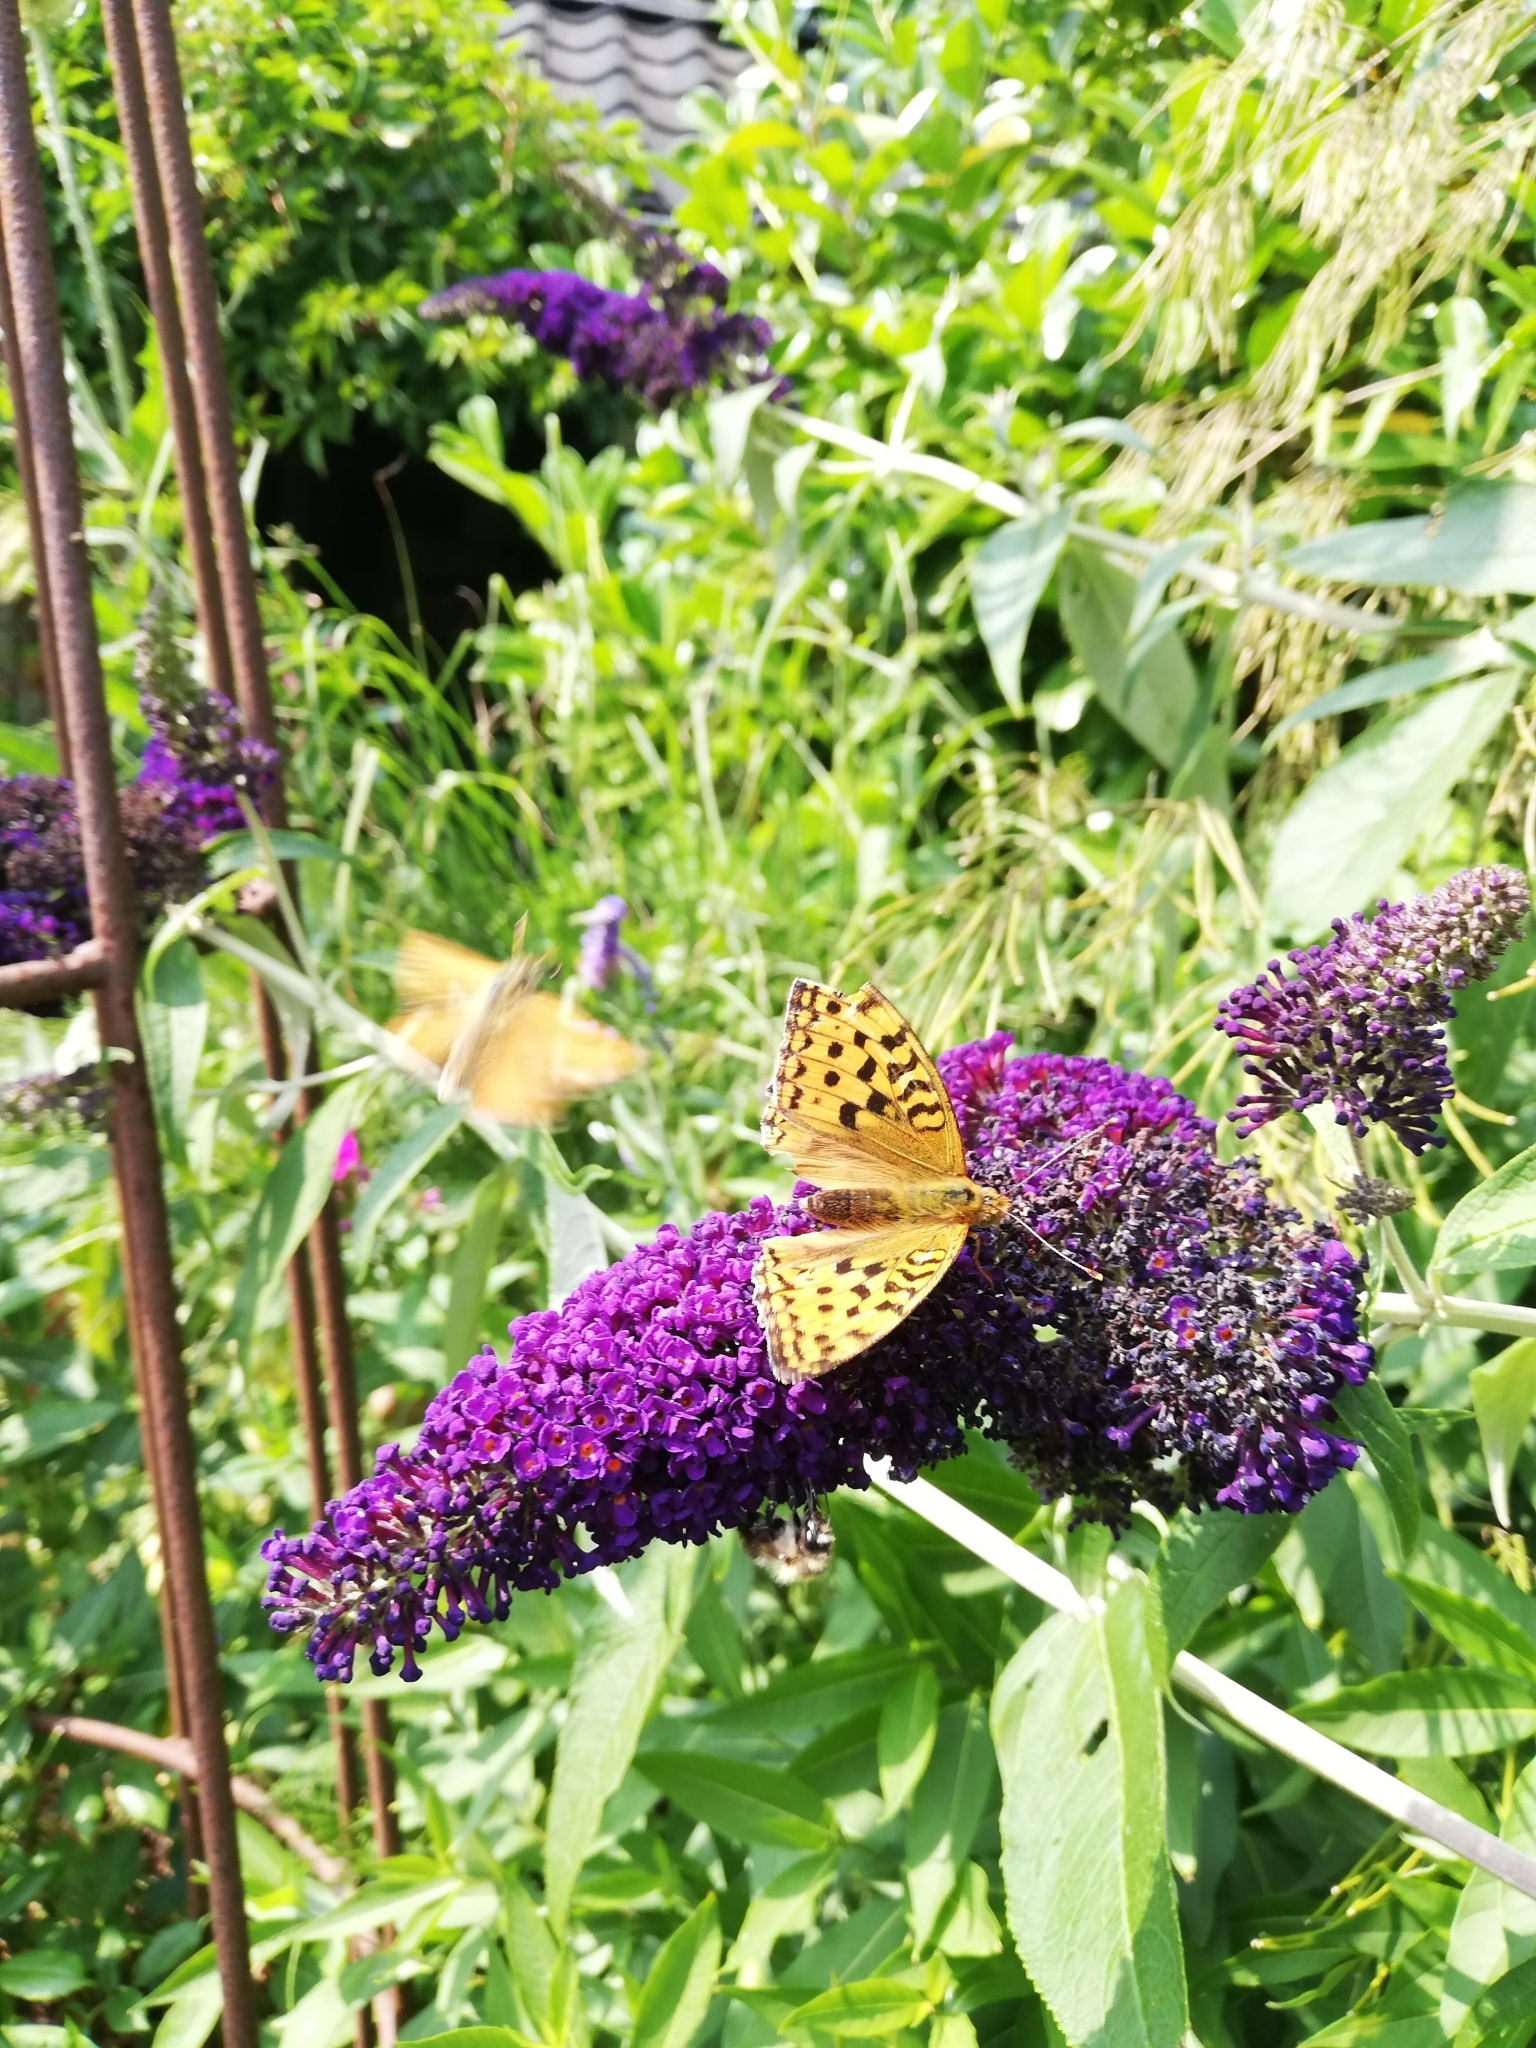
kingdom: Animalia
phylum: Arthropoda
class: Insecta
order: Lepidoptera
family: Nymphalidae
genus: Fabriciana
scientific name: Fabriciana adippe
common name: High brown fritillary
